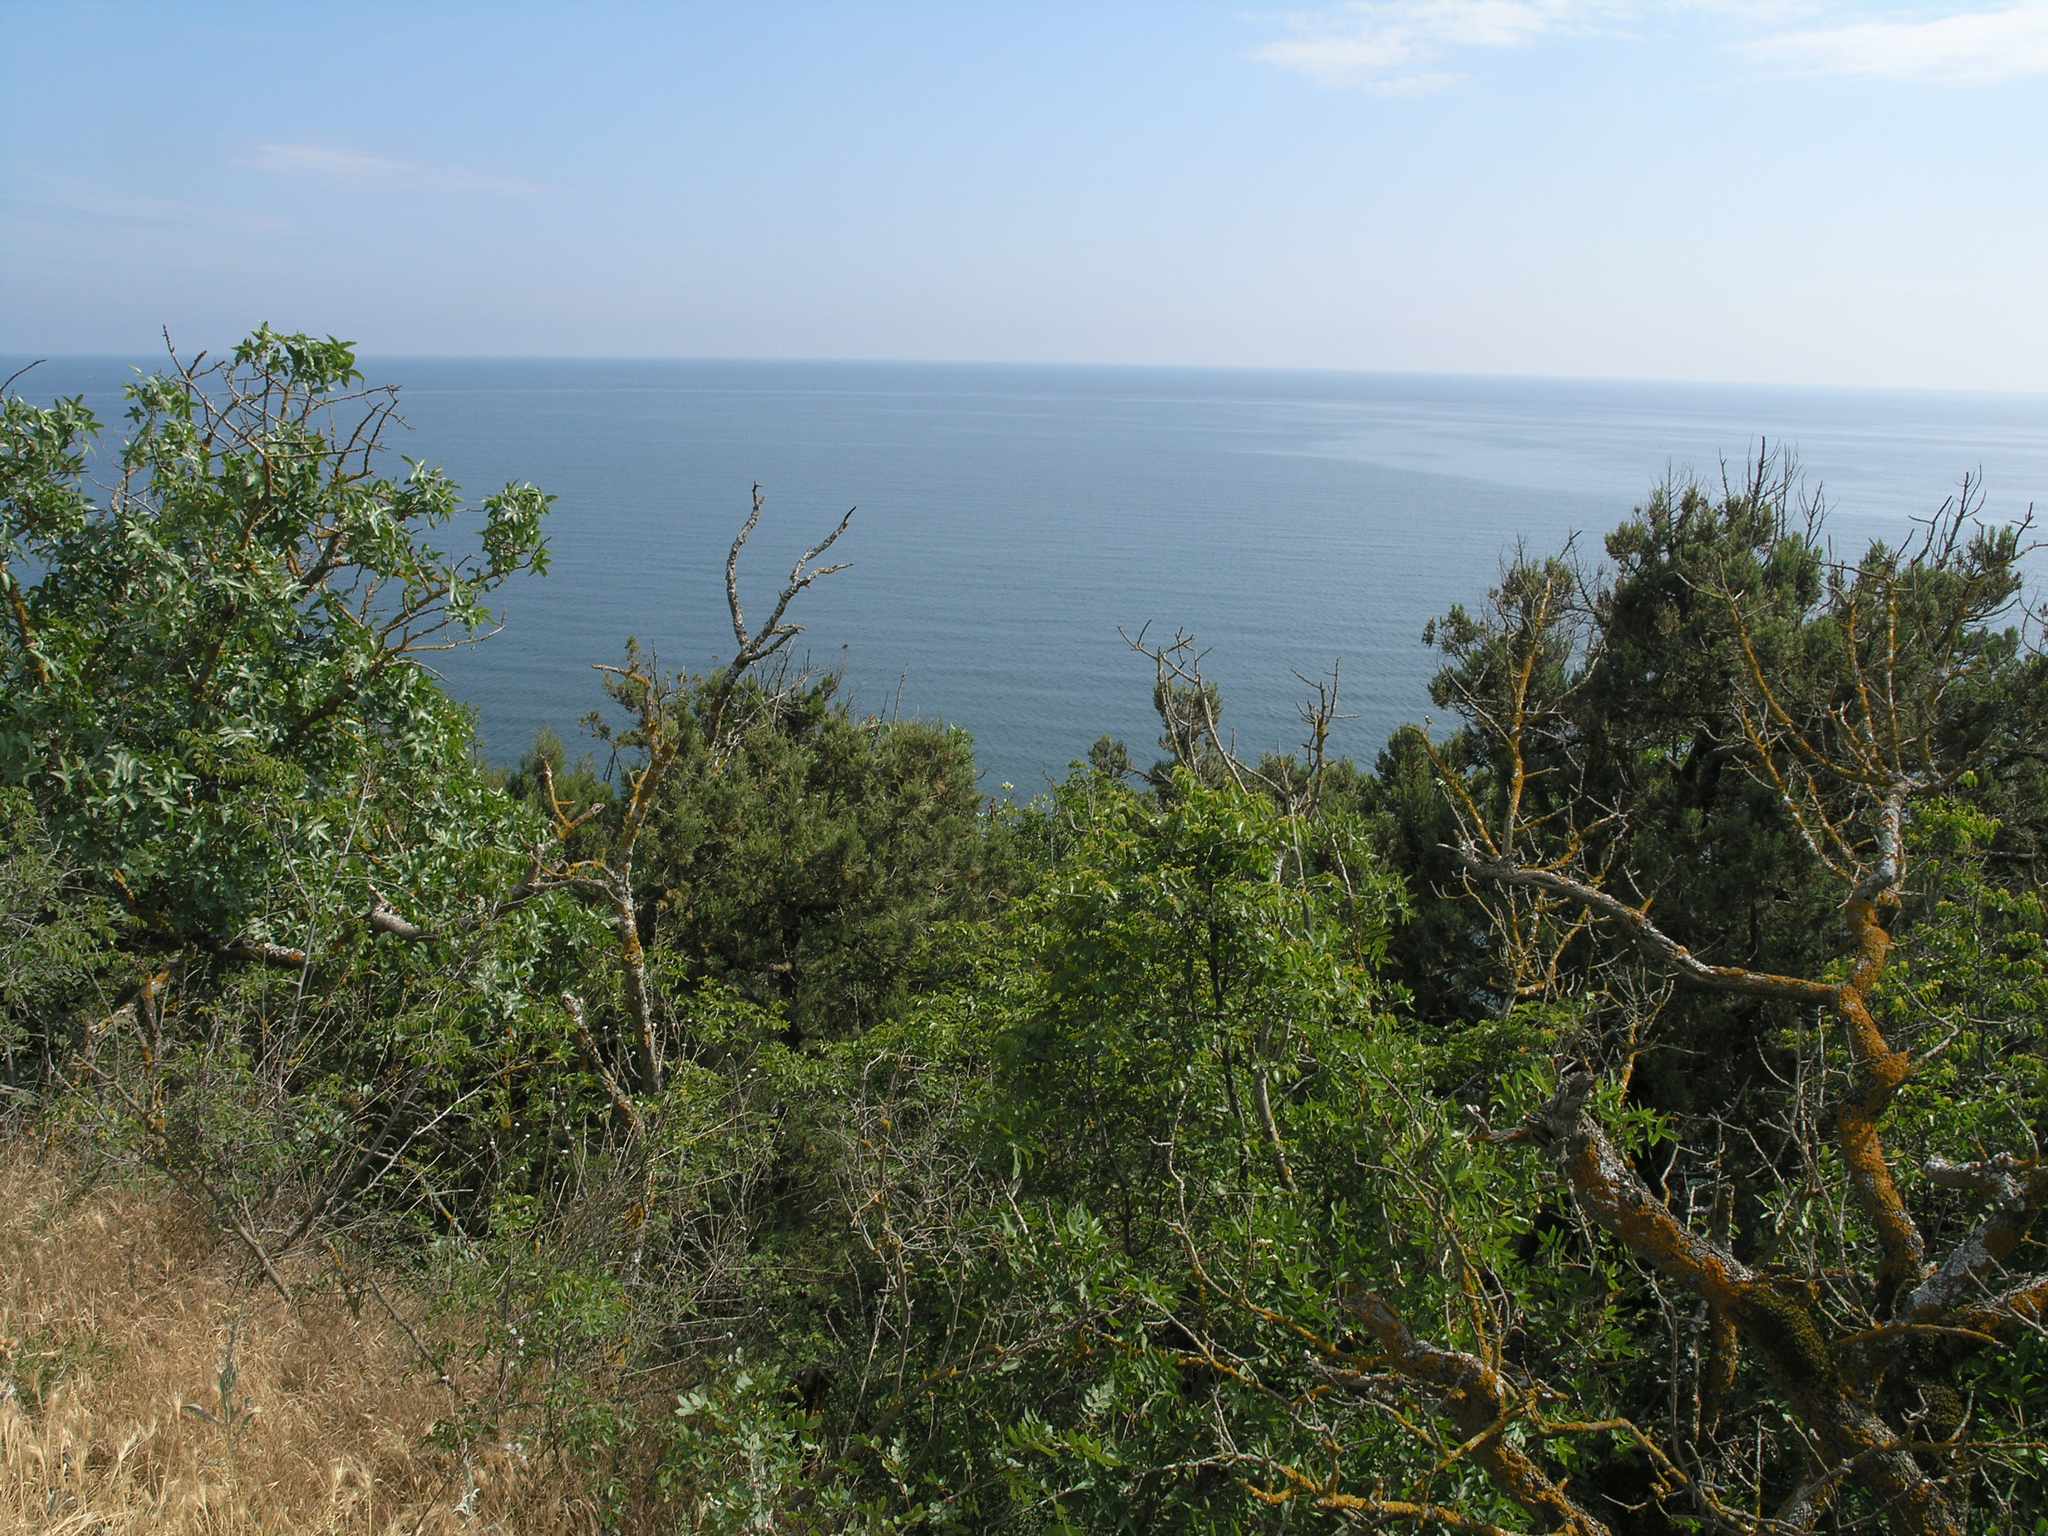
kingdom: Plantae
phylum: Tracheophyta
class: Magnoliopsida
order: Sapindales
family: Anacardiaceae
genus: Pistacia
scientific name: Pistacia atlantica
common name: Mt. atlas mastic tree
